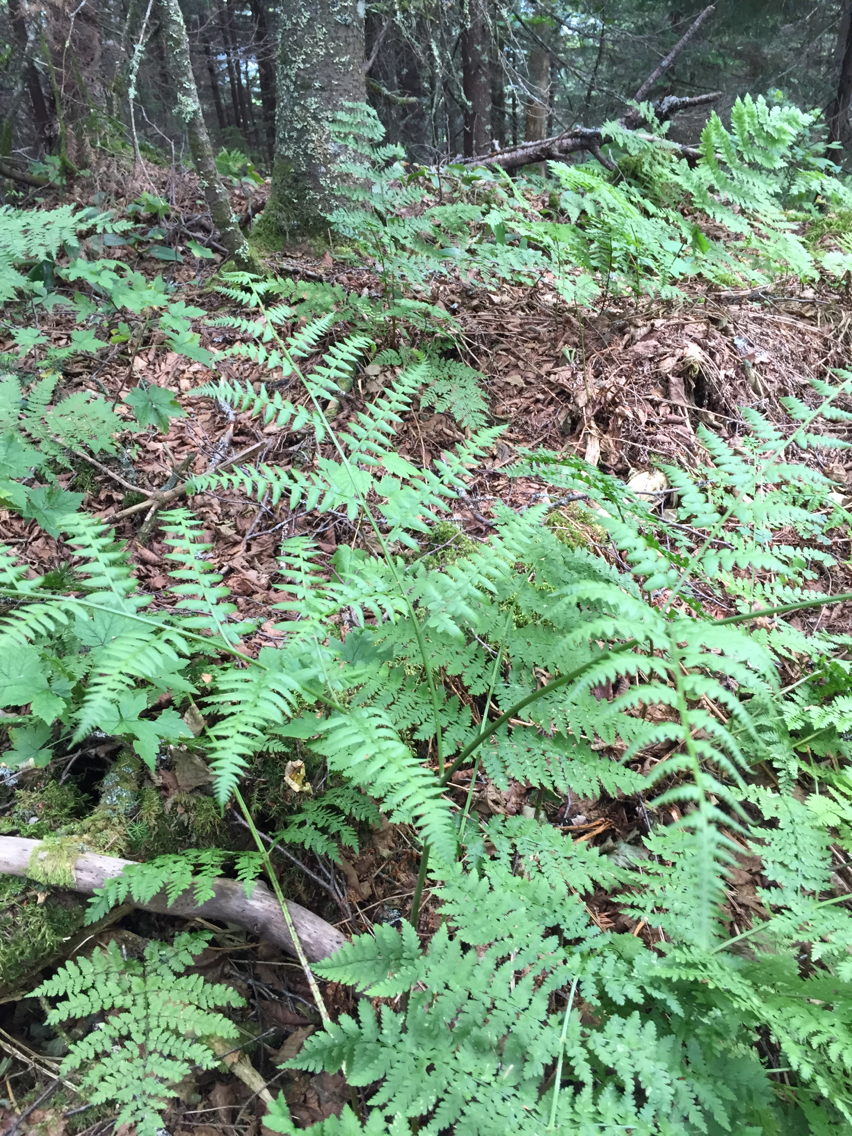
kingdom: Plantae
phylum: Tracheophyta
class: Polypodiopsida
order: Polypodiales
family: Dennstaedtiaceae
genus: Pteridium
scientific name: Pteridium aquilinum
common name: Bracken
